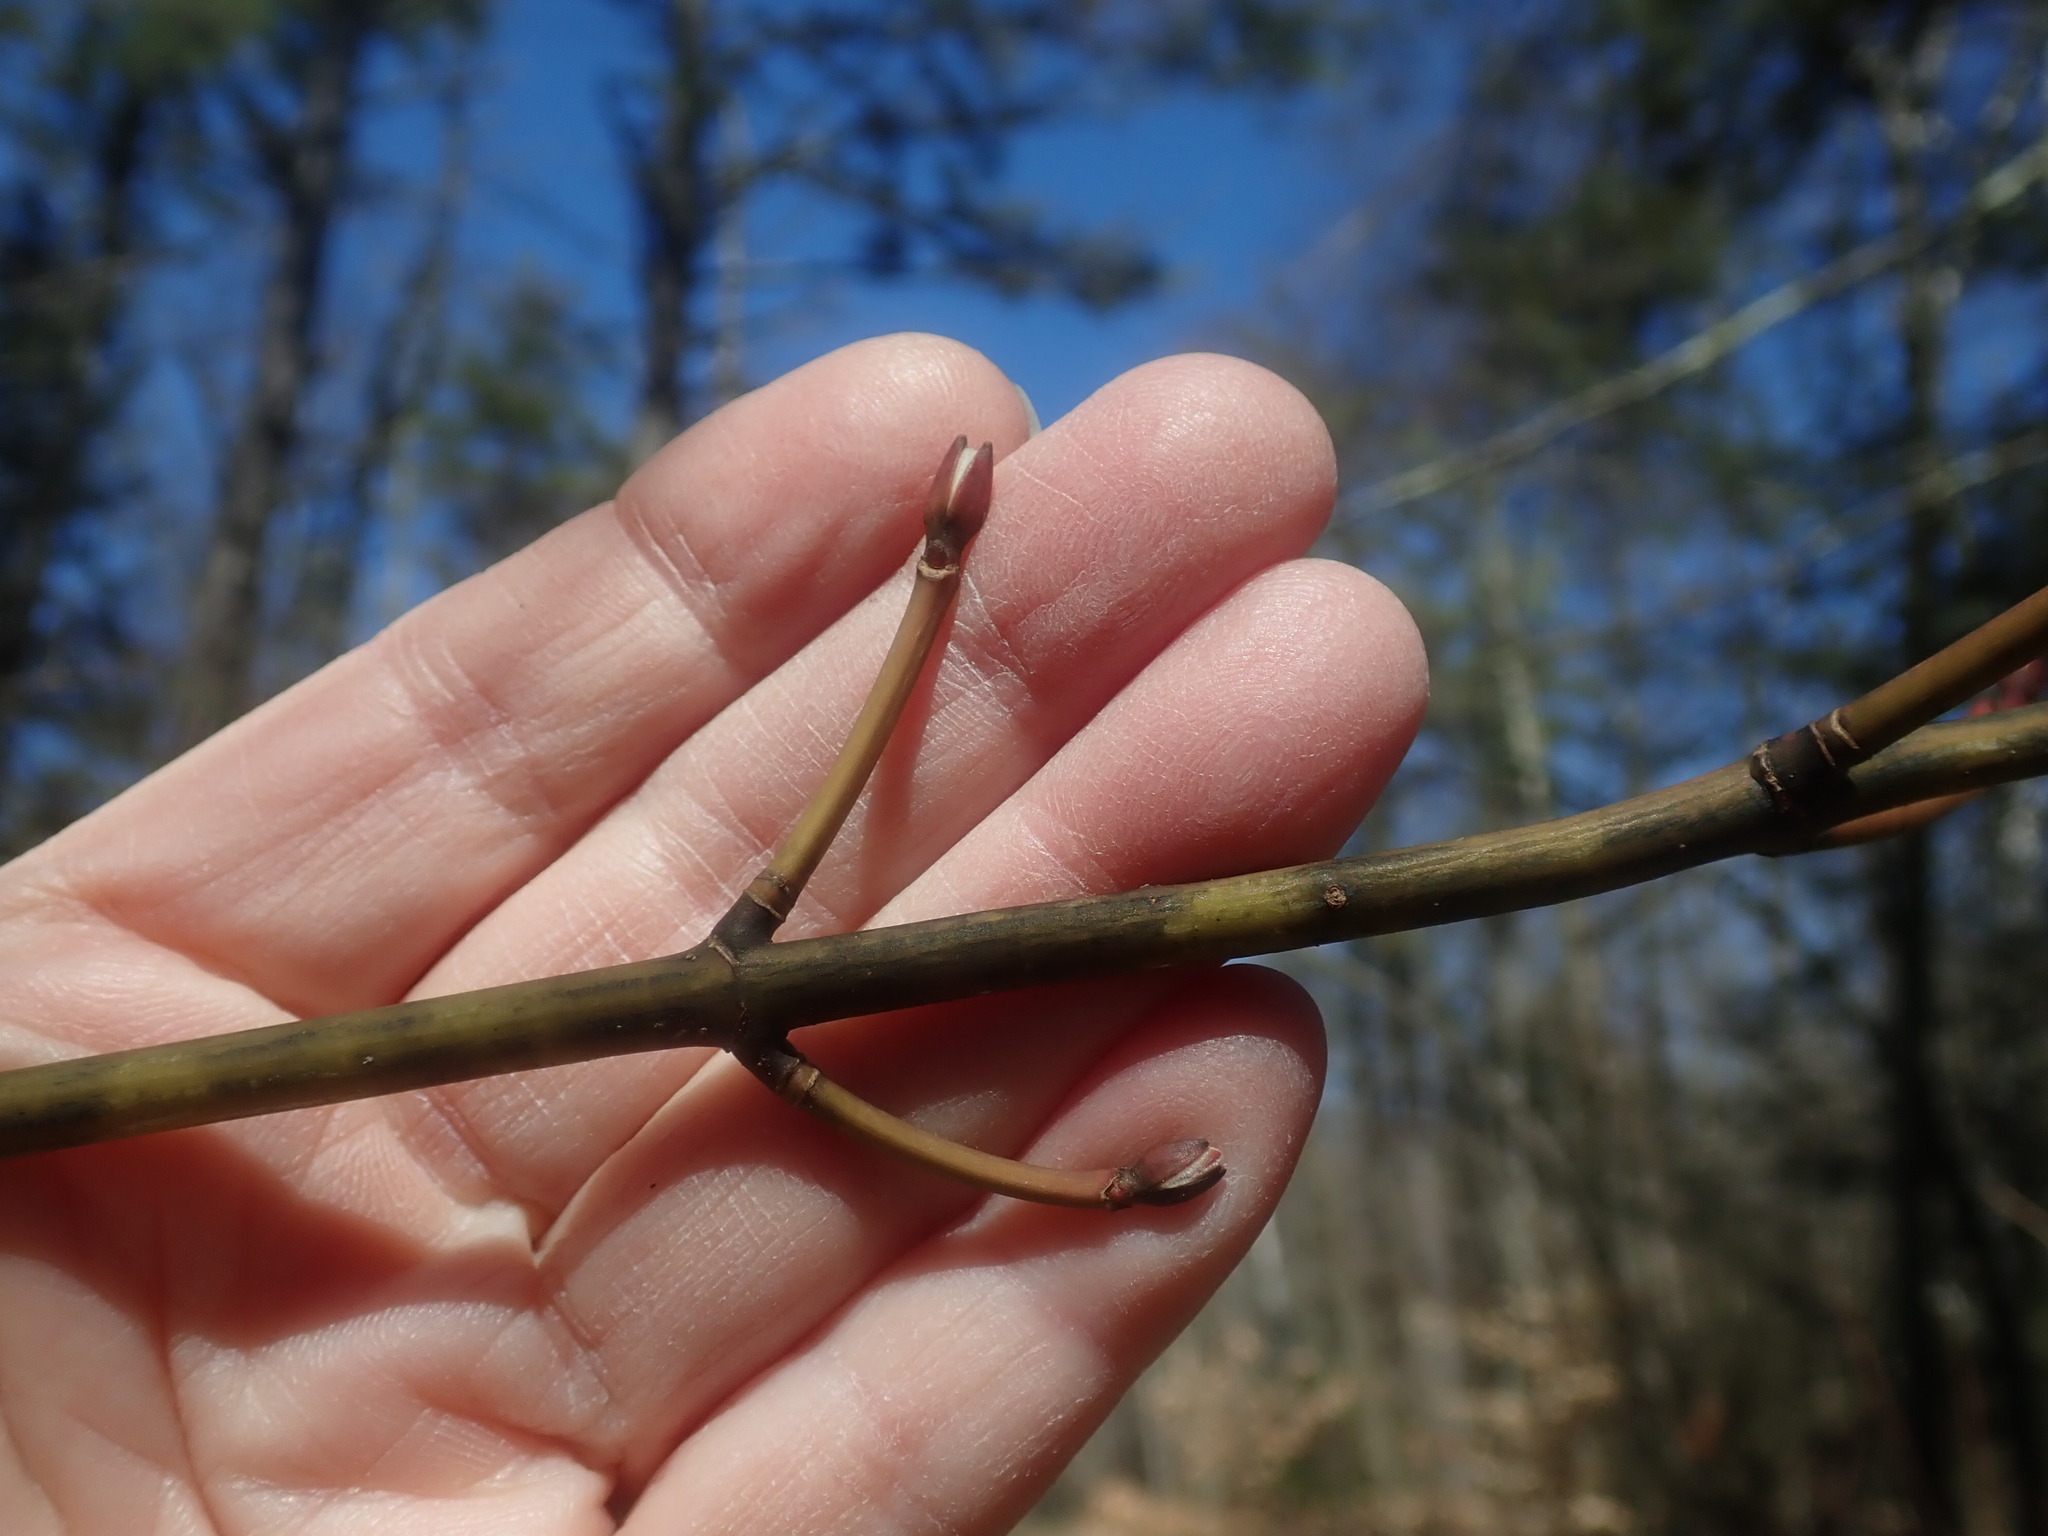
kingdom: Plantae
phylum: Tracheophyta
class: Magnoliopsida
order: Sapindales
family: Sapindaceae
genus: Acer
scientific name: Acer pensylvanicum
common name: Moosewood
